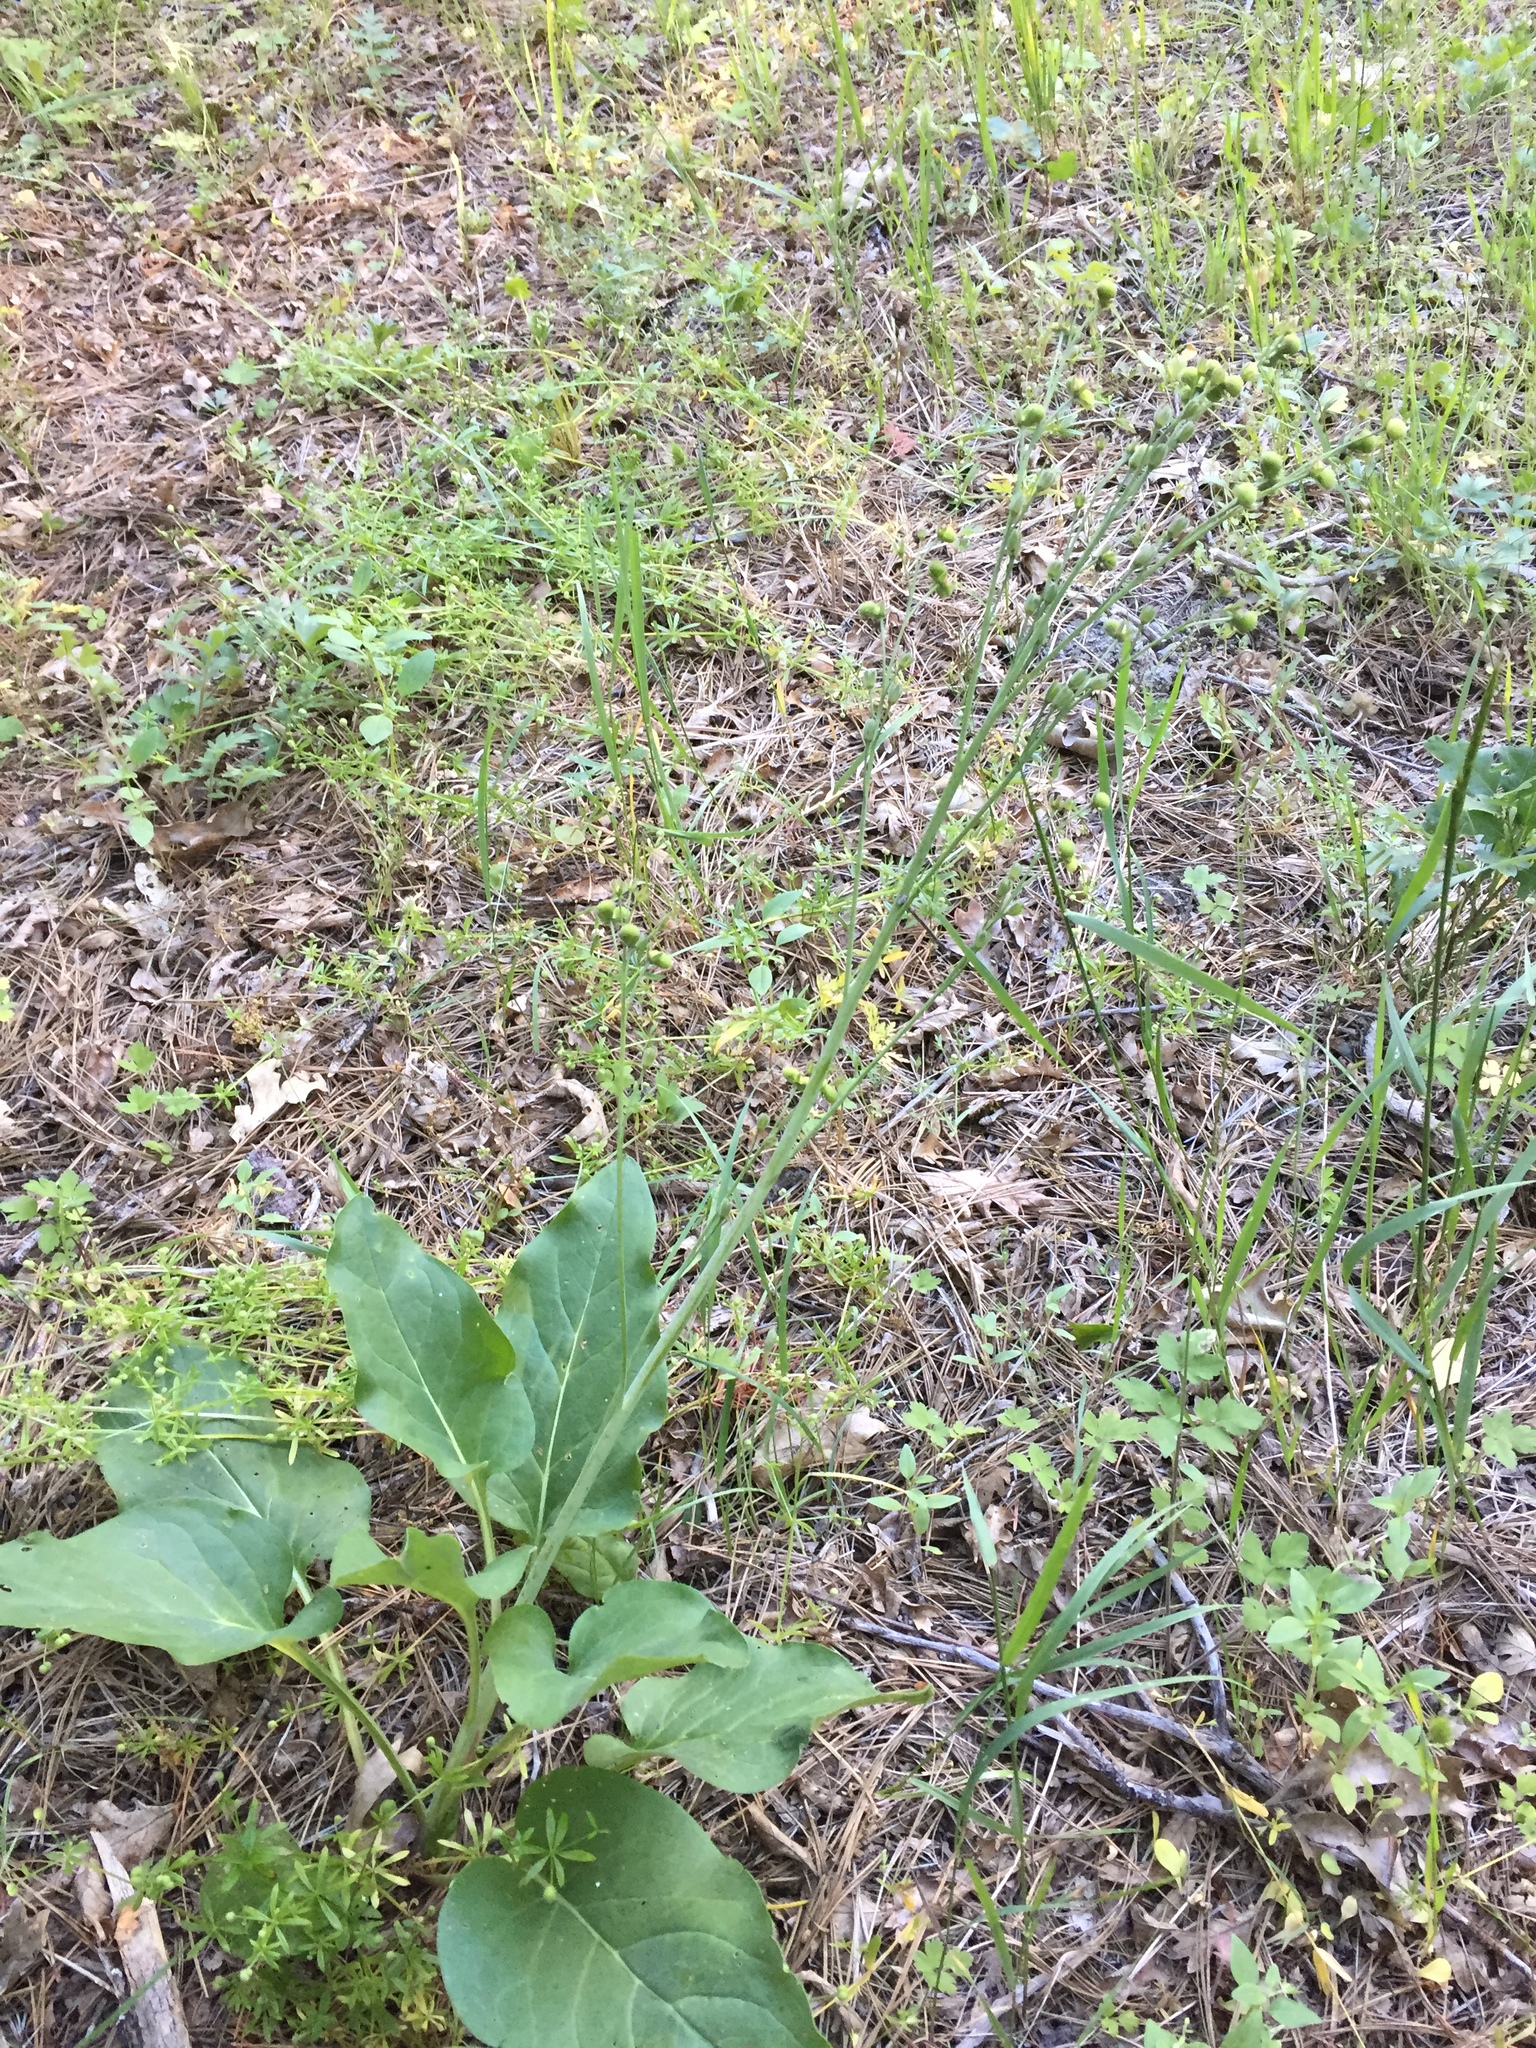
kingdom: Plantae
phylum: Tracheophyta
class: Magnoliopsida
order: Boraginales
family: Boraginaceae
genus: Adelinia
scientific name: Adelinia grande
